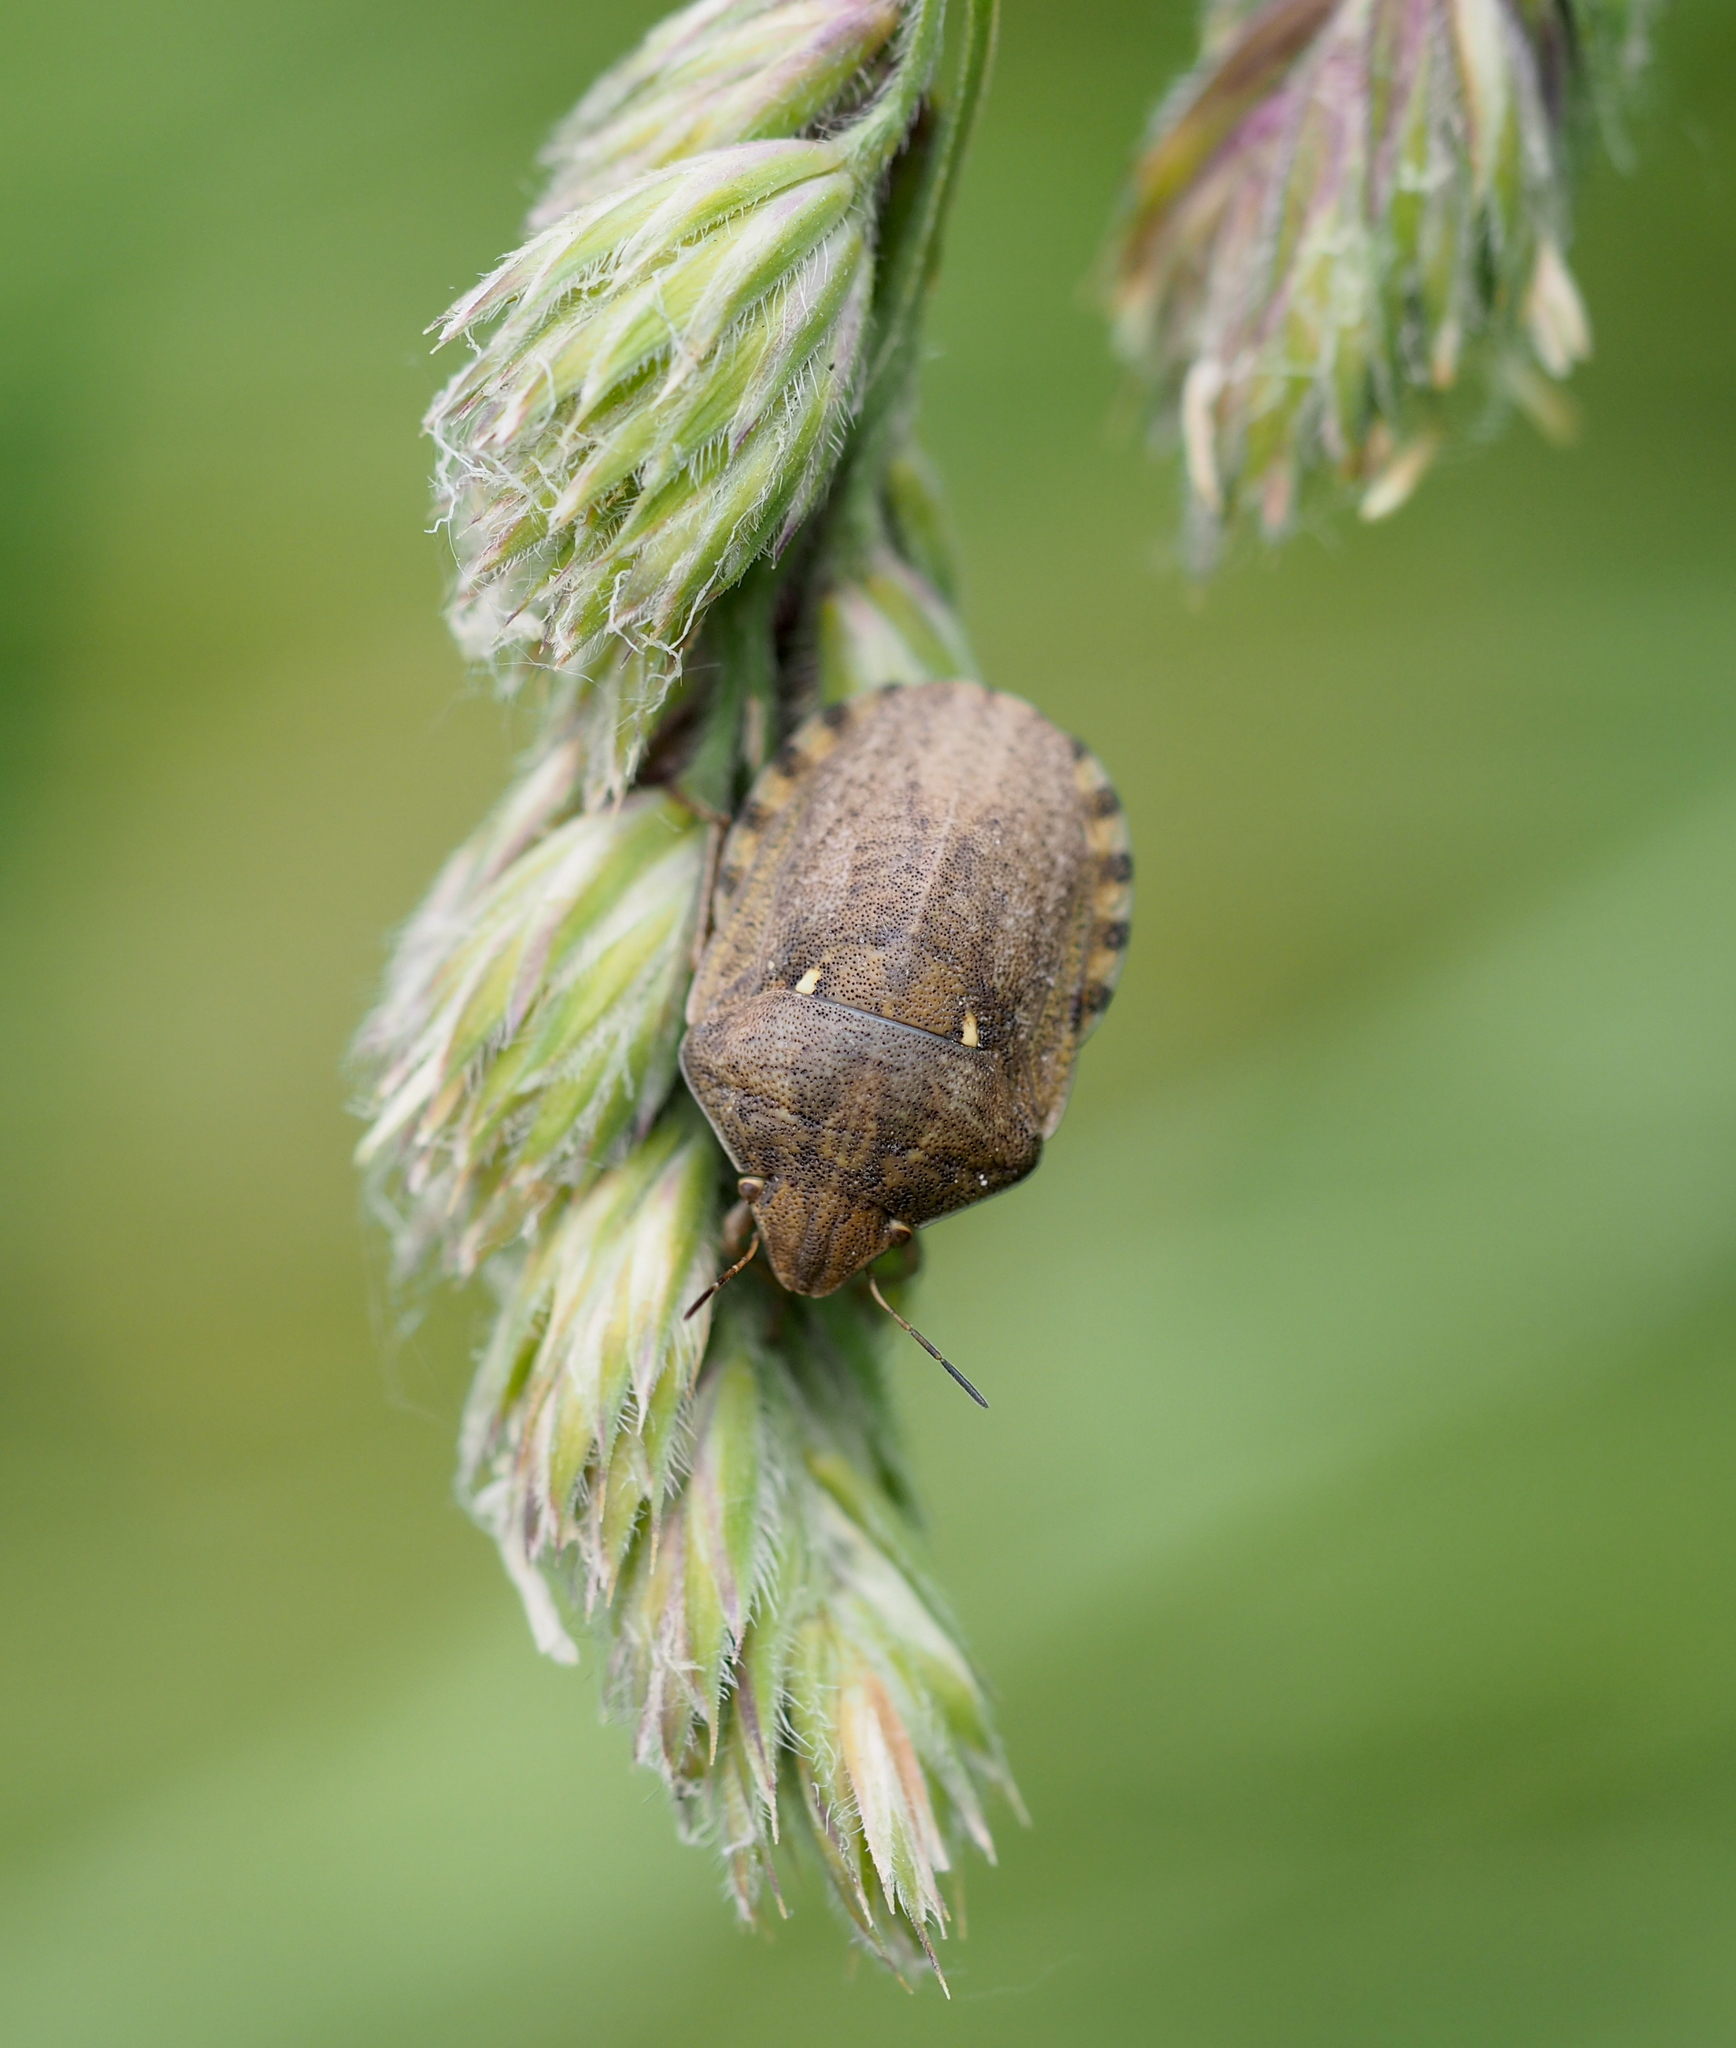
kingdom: Animalia
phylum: Arthropoda
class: Insecta
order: Hemiptera
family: Scutelleridae
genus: Eurygaster
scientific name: Eurygaster maura
